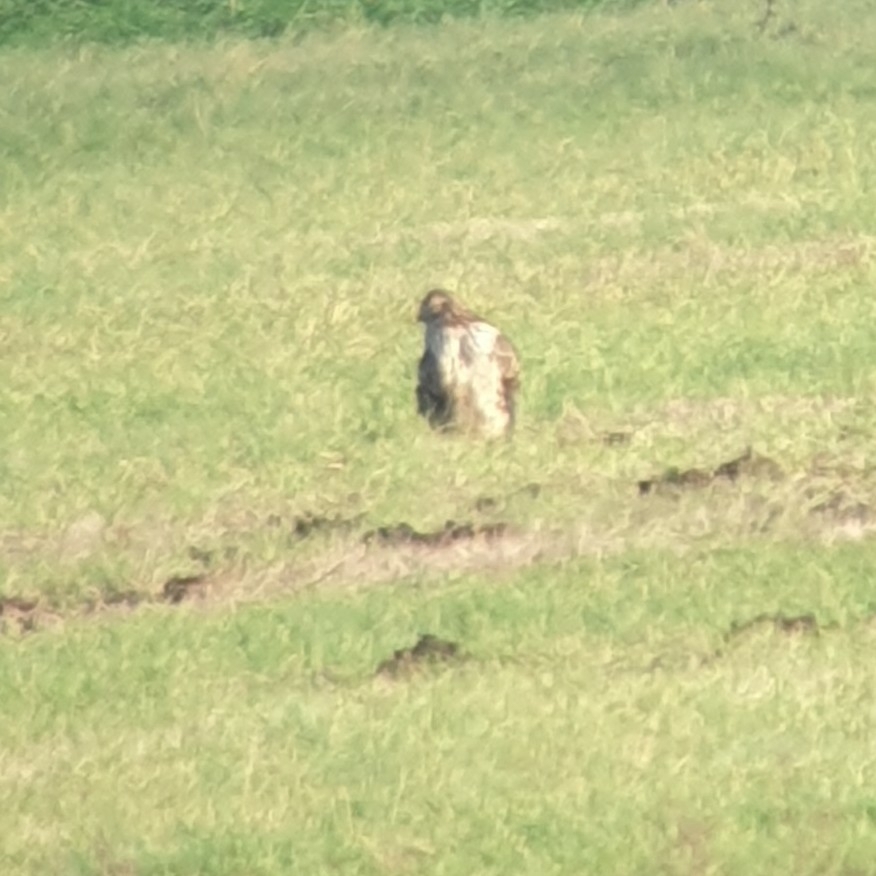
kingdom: Animalia
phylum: Chordata
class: Aves
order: Accipitriformes
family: Accipitridae
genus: Circus
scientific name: Circus cyaneus
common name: Hen harrier
